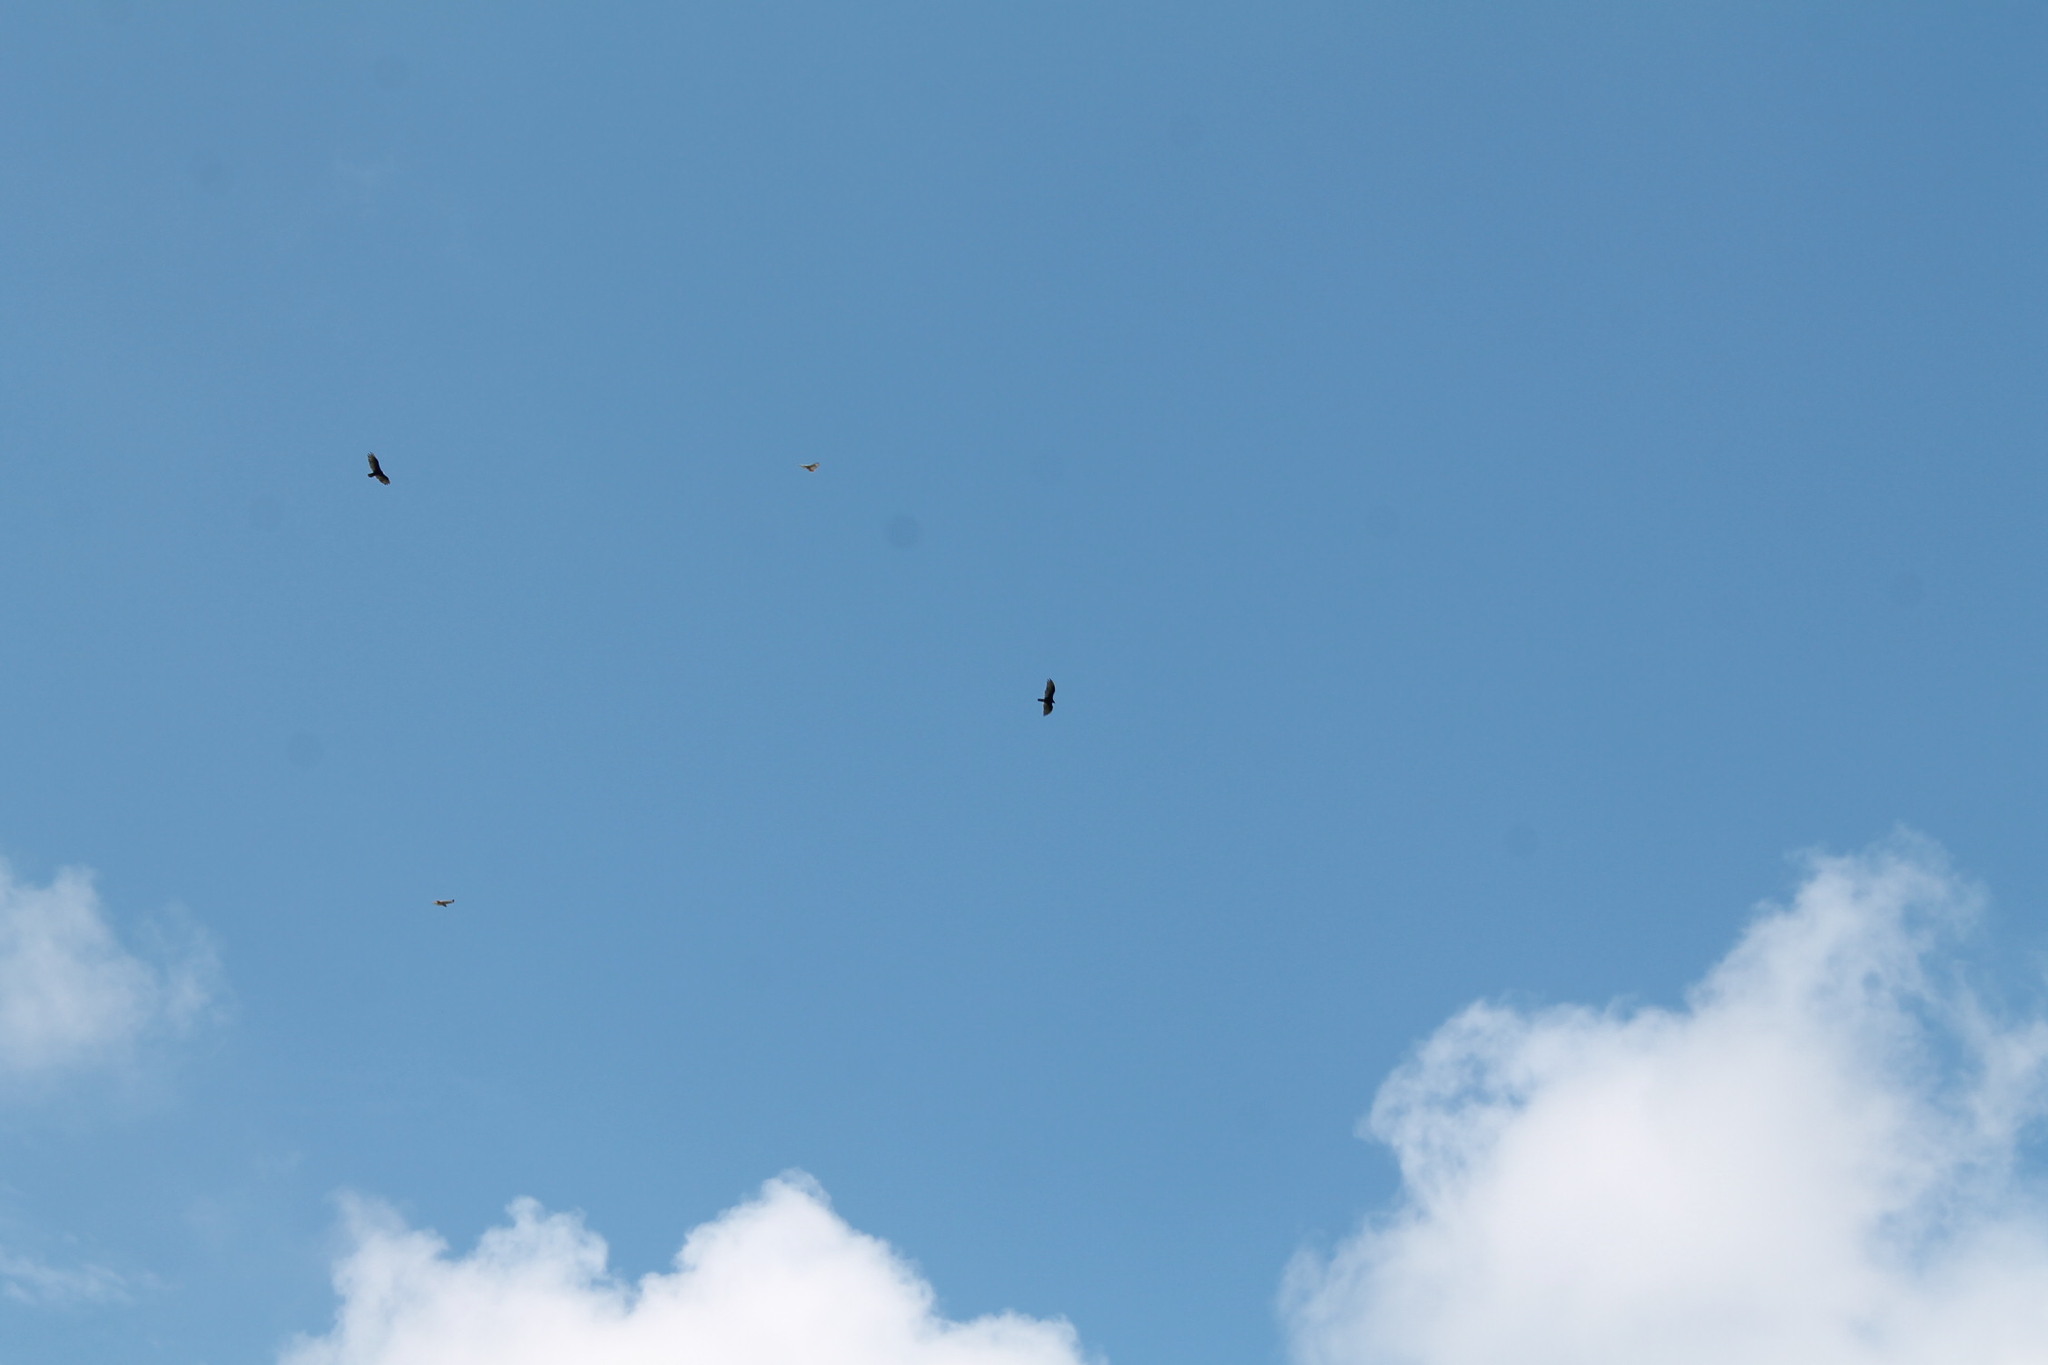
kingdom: Animalia
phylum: Chordata
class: Aves
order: Accipitriformes
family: Cathartidae
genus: Cathartes
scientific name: Cathartes aura
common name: Turkey vulture
